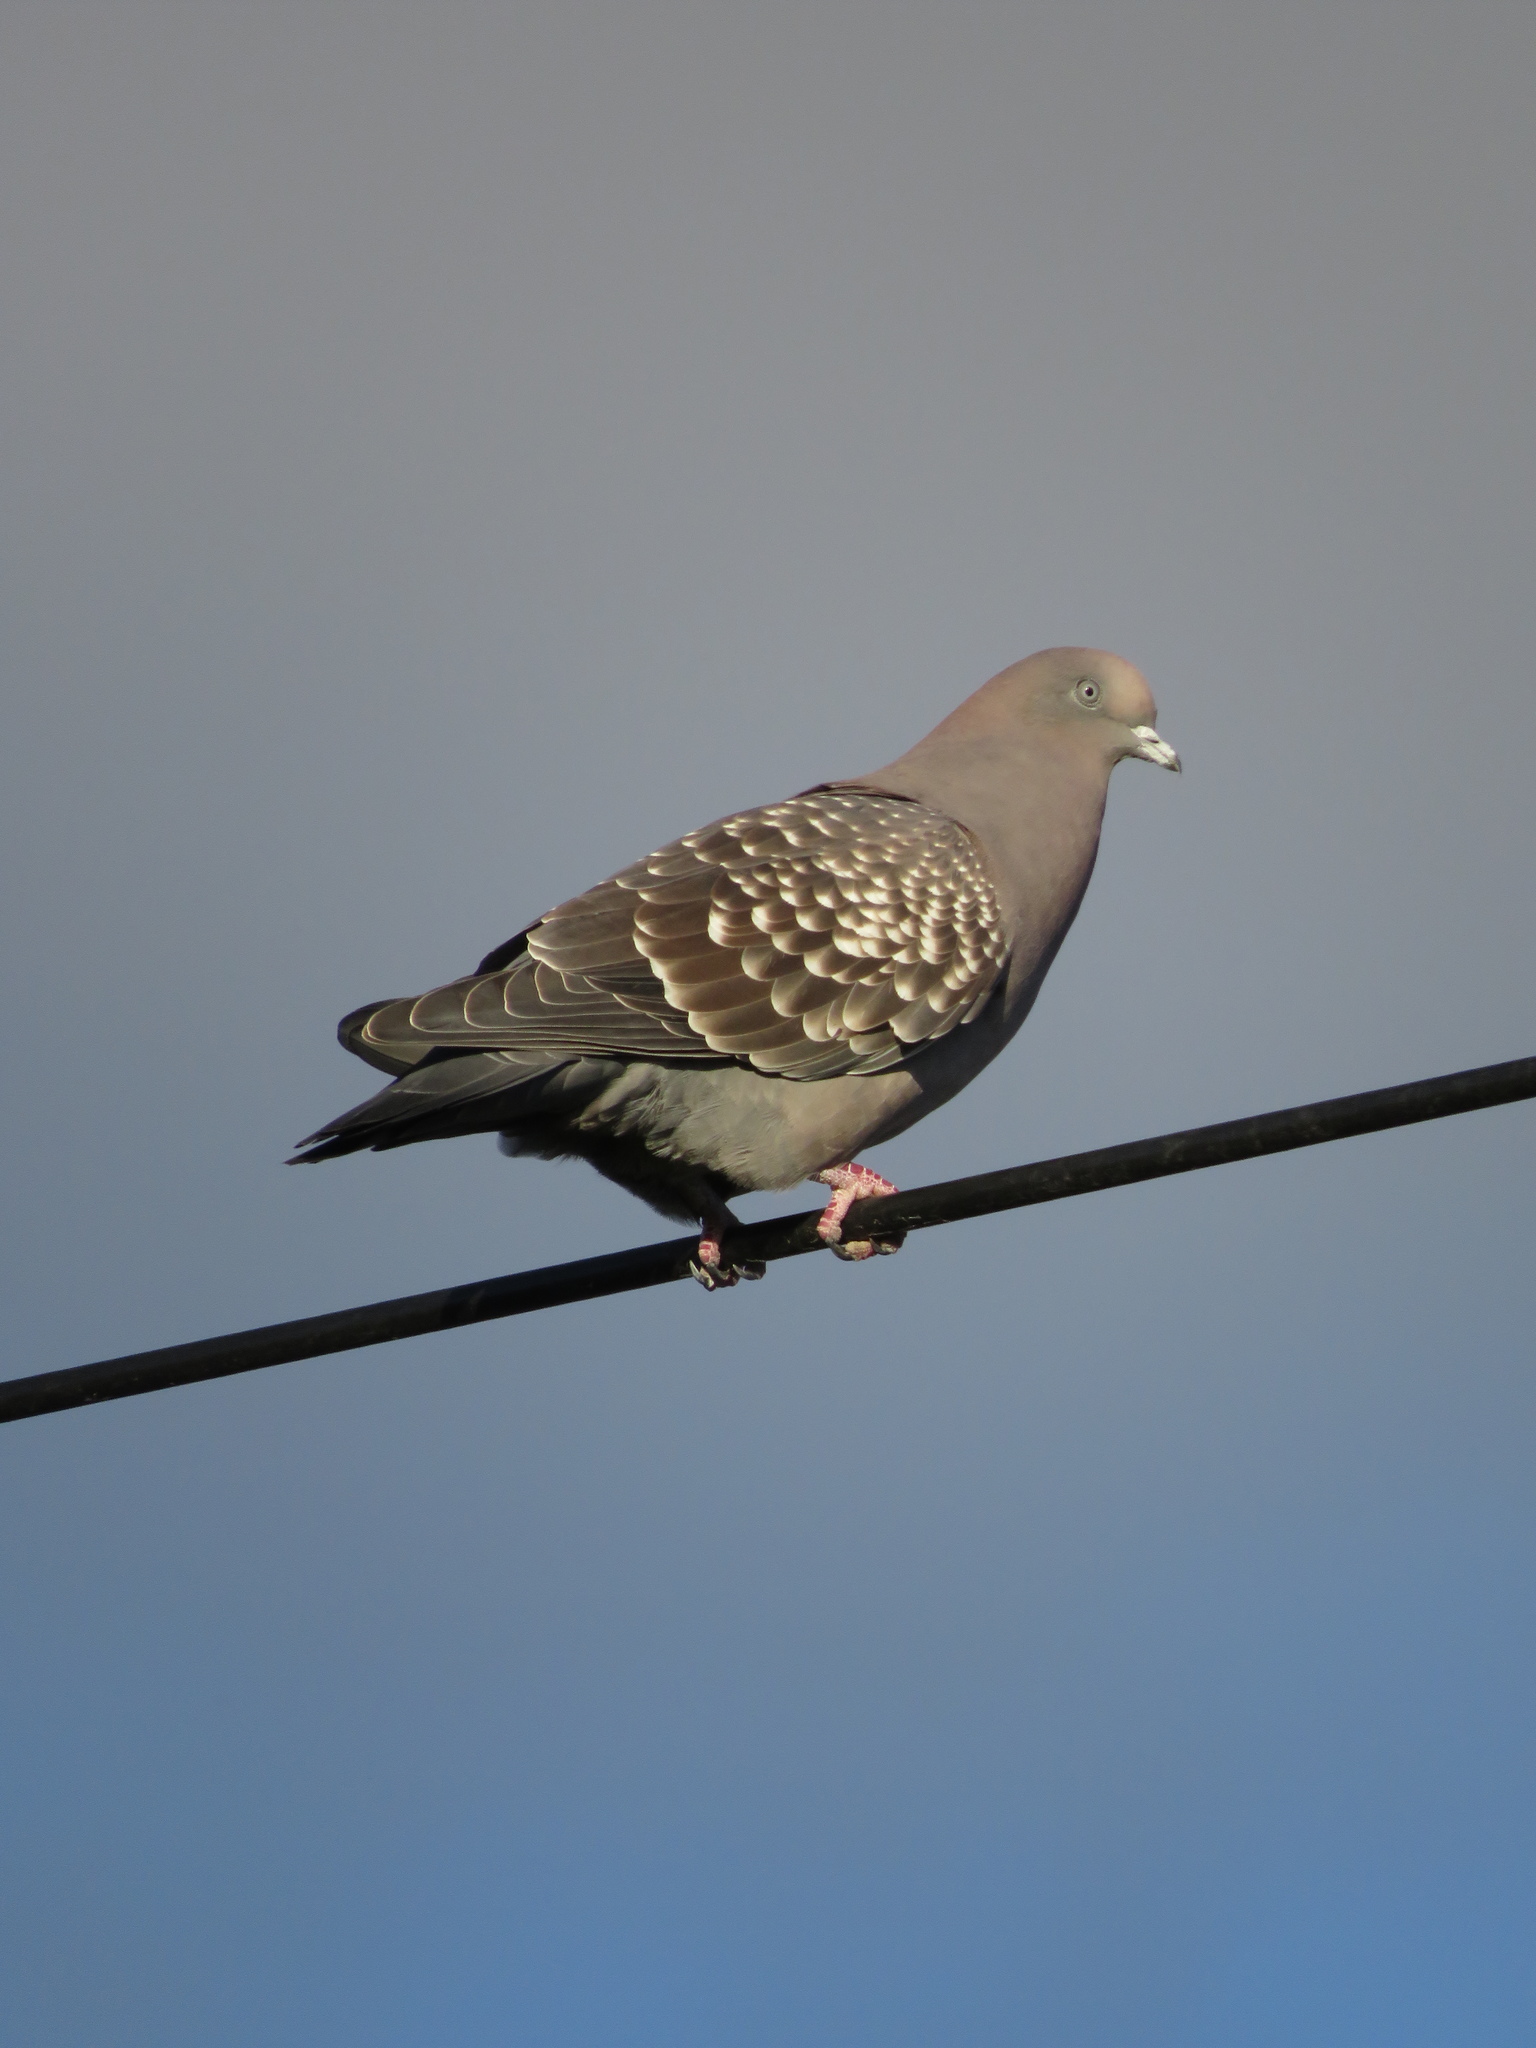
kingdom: Animalia
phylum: Chordata
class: Aves
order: Columbiformes
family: Columbidae
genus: Patagioenas
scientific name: Patagioenas maculosa
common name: Spot-winged pigeon
